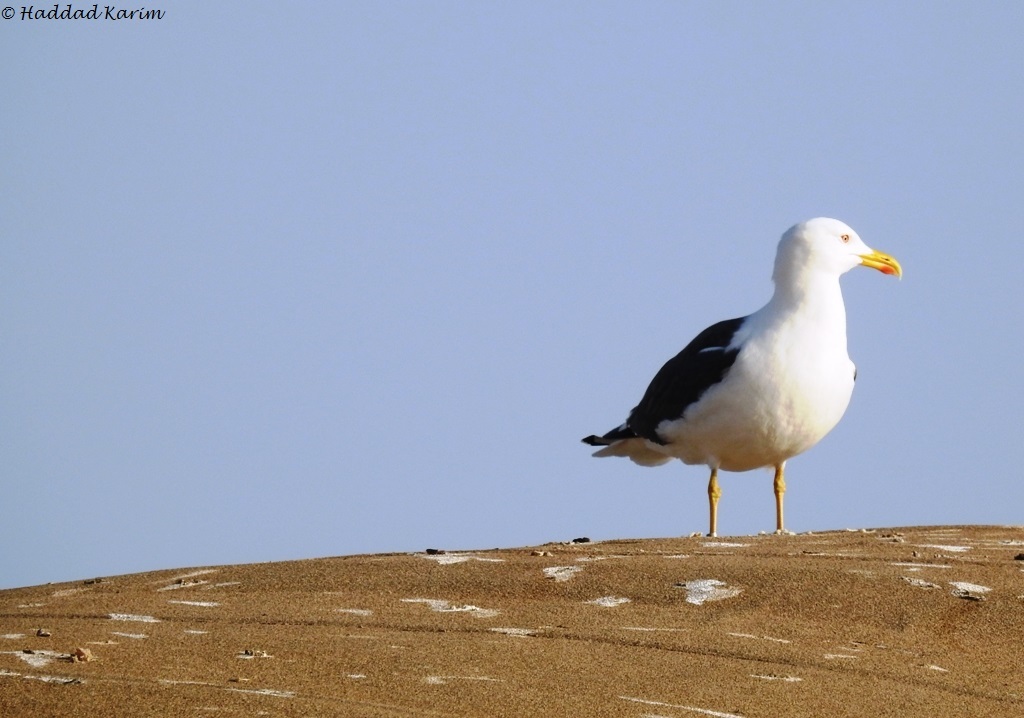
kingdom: Animalia
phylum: Chordata
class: Aves
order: Charadriiformes
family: Laridae
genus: Larus
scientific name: Larus fuscus
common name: Lesser black-backed gull
